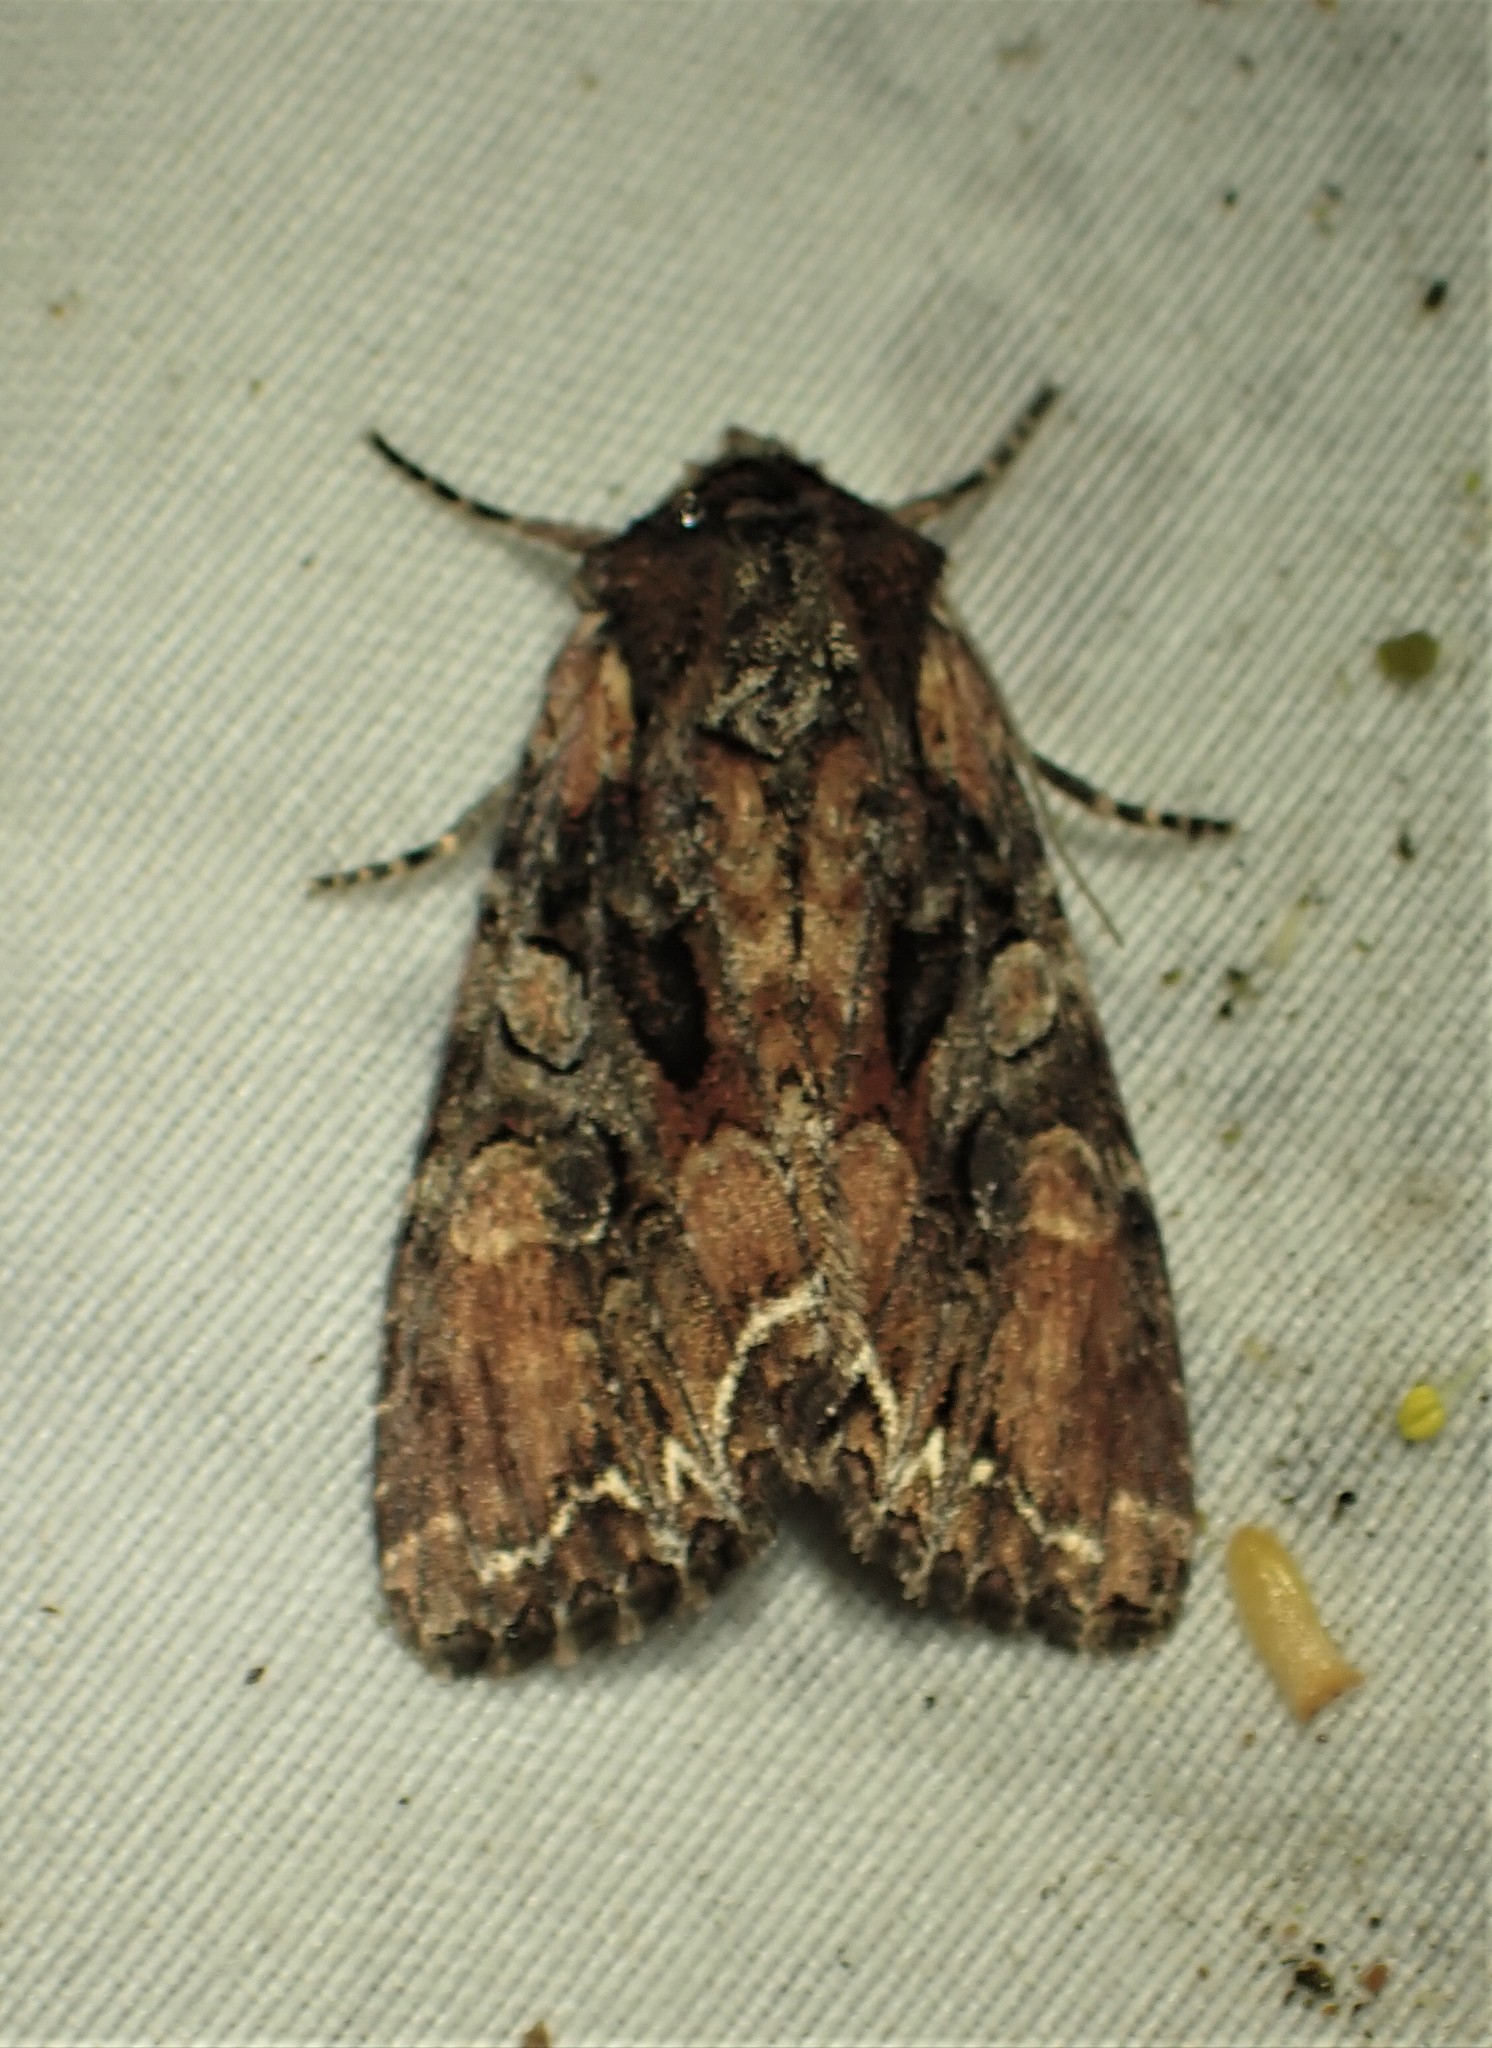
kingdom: Animalia
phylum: Arthropoda
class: Insecta
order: Lepidoptera
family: Noctuidae
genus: Lacanobia
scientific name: Lacanobia nevadae
